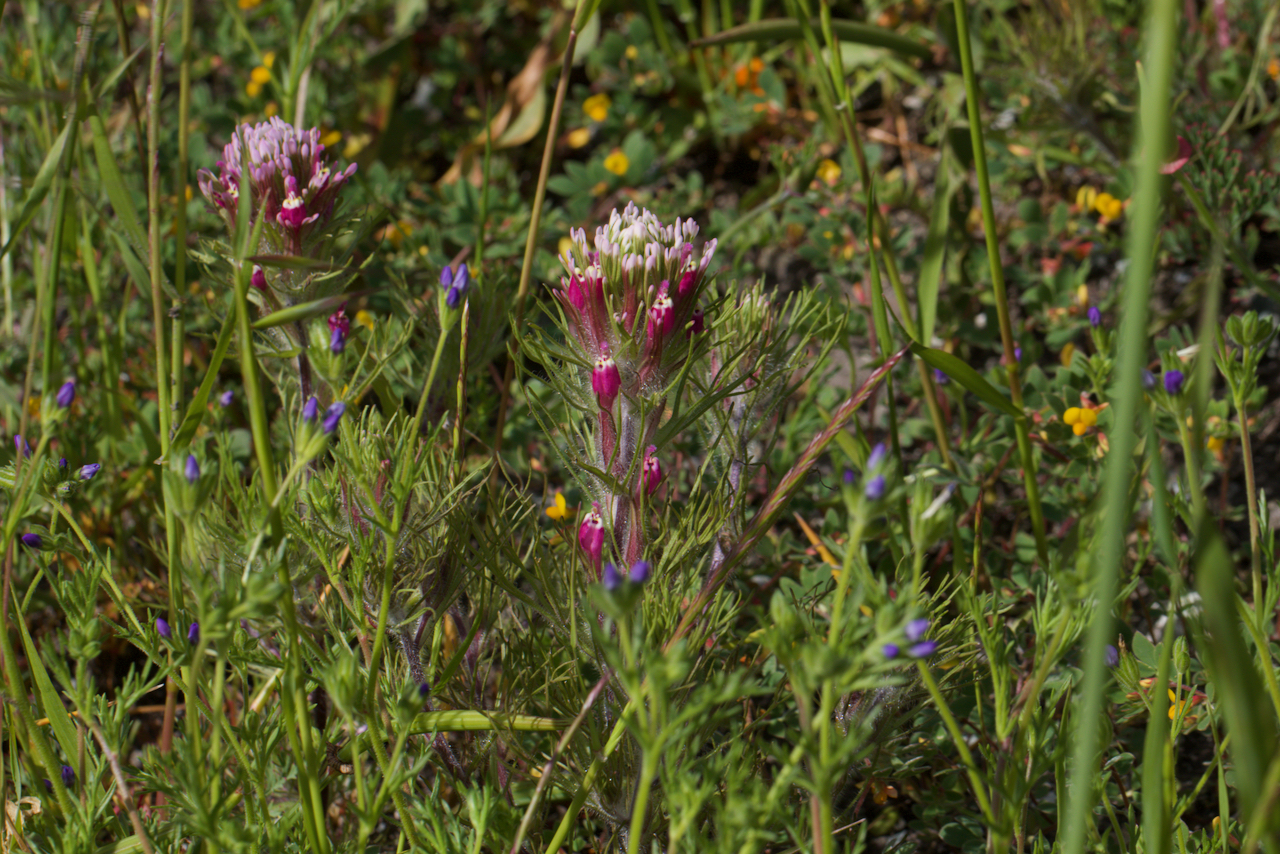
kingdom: Plantae
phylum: Tracheophyta
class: Magnoliopsida
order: Lamiales
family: Orobanchaceae
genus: Castilleja
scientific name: Castilleja exserta
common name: Purple owl-clover
